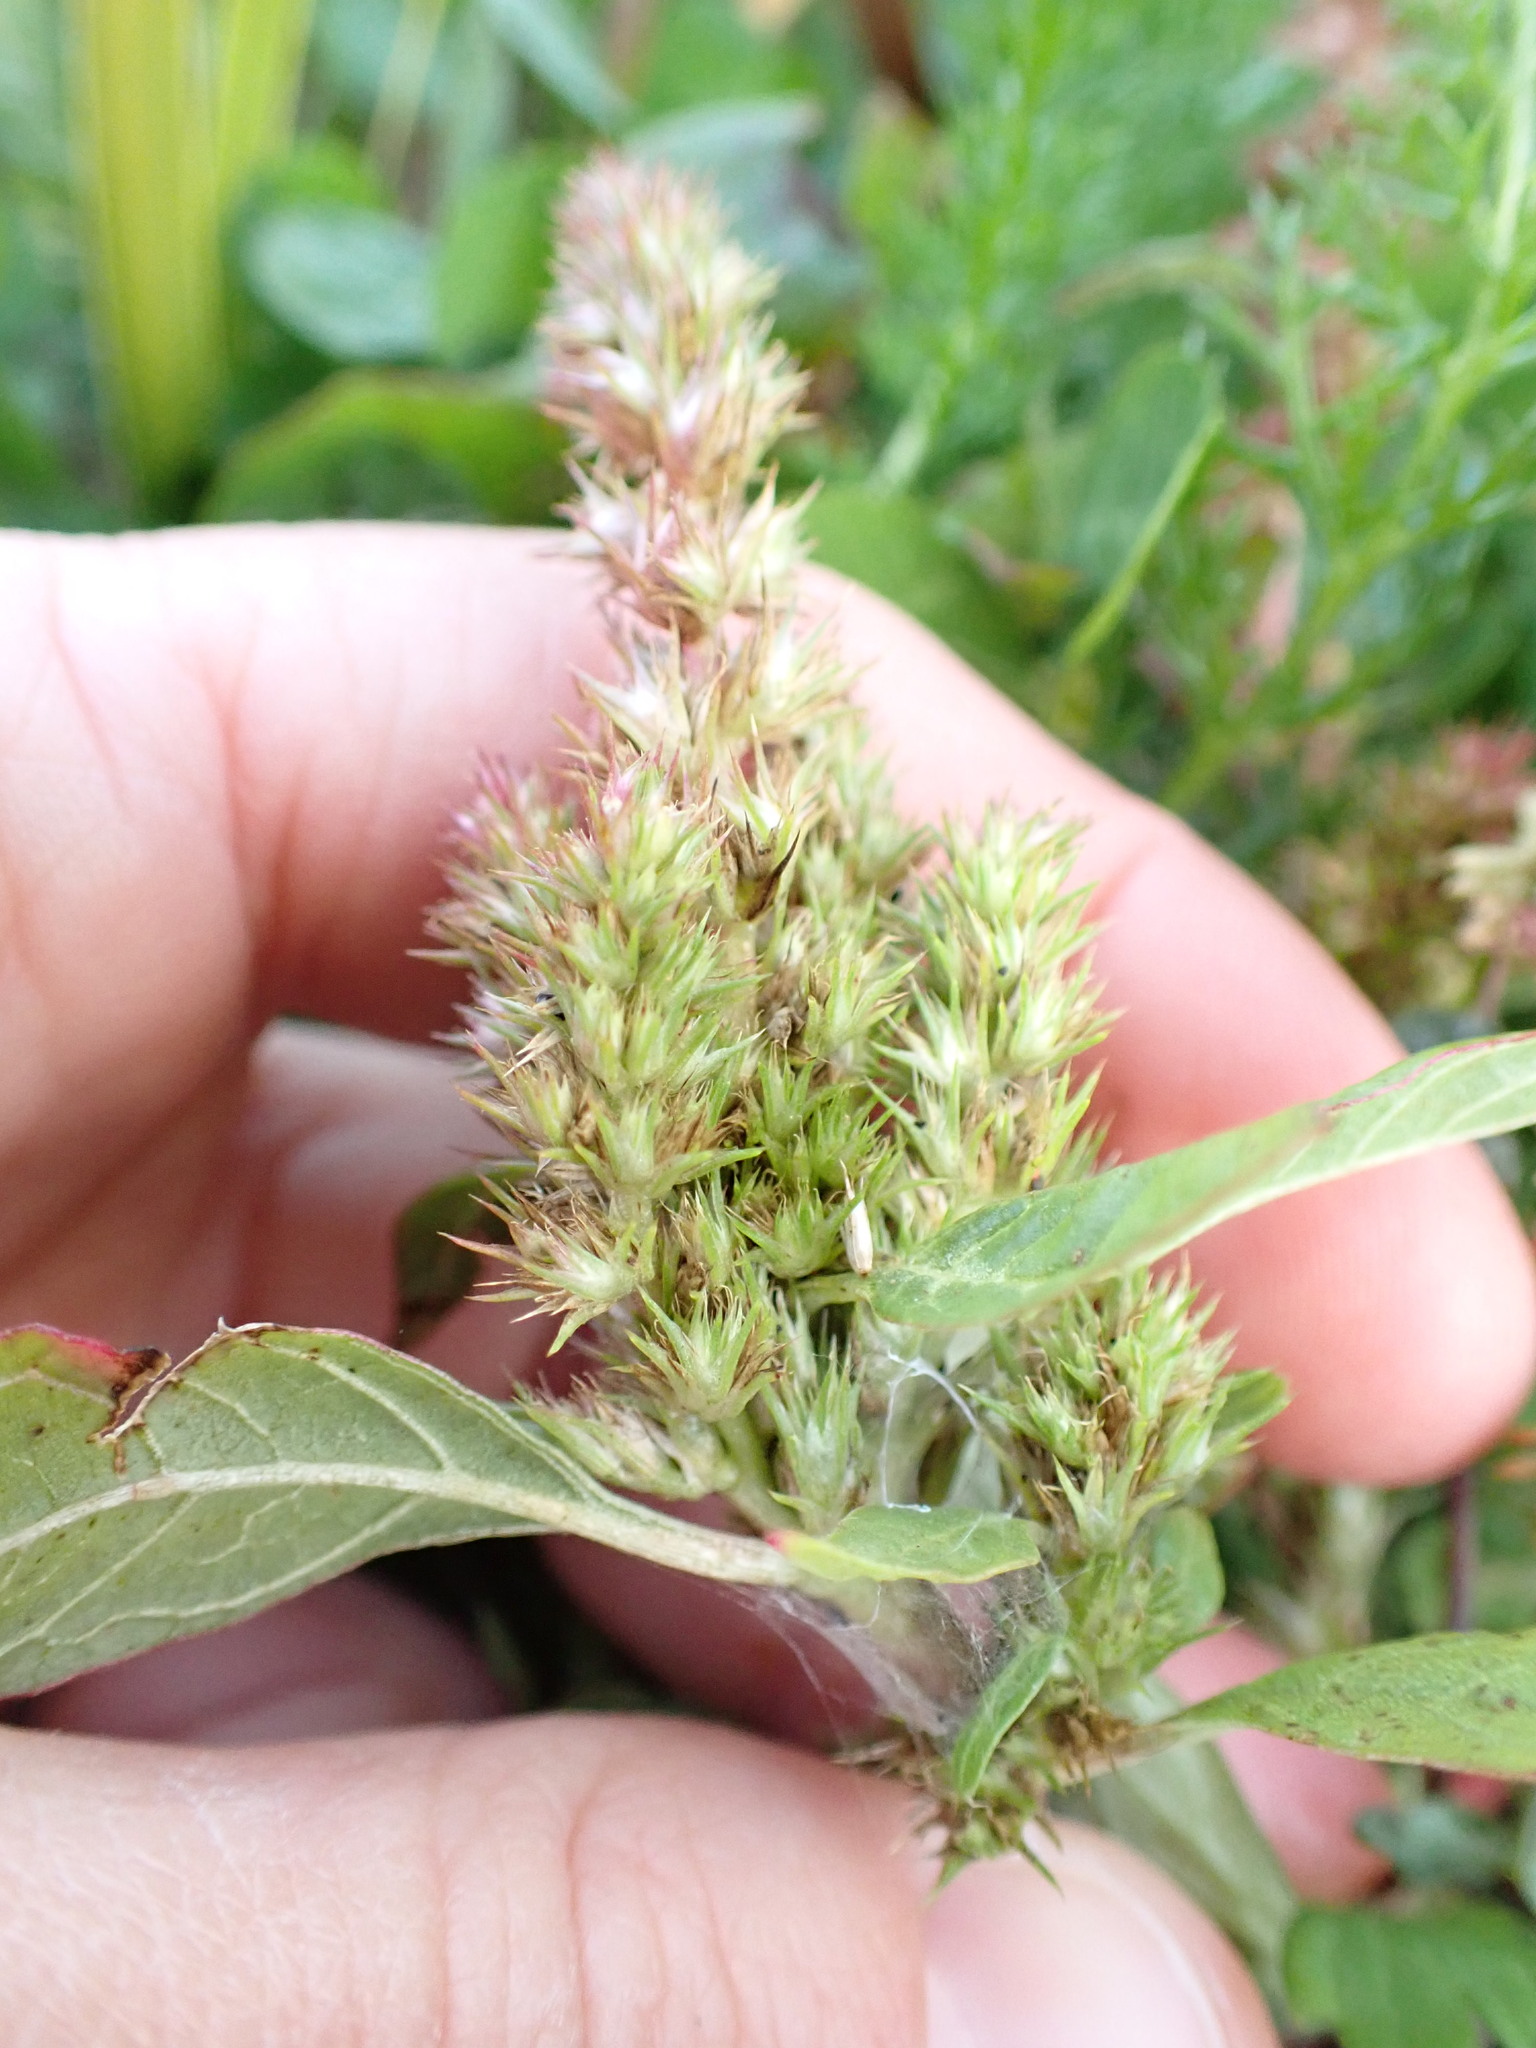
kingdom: Plantae
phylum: Tracheophyta
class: Magnoliopsida
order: Caryophyllales
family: Amaranthaceae
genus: Amaranthus
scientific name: Amaranthus powellii
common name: Powell's amaranth
